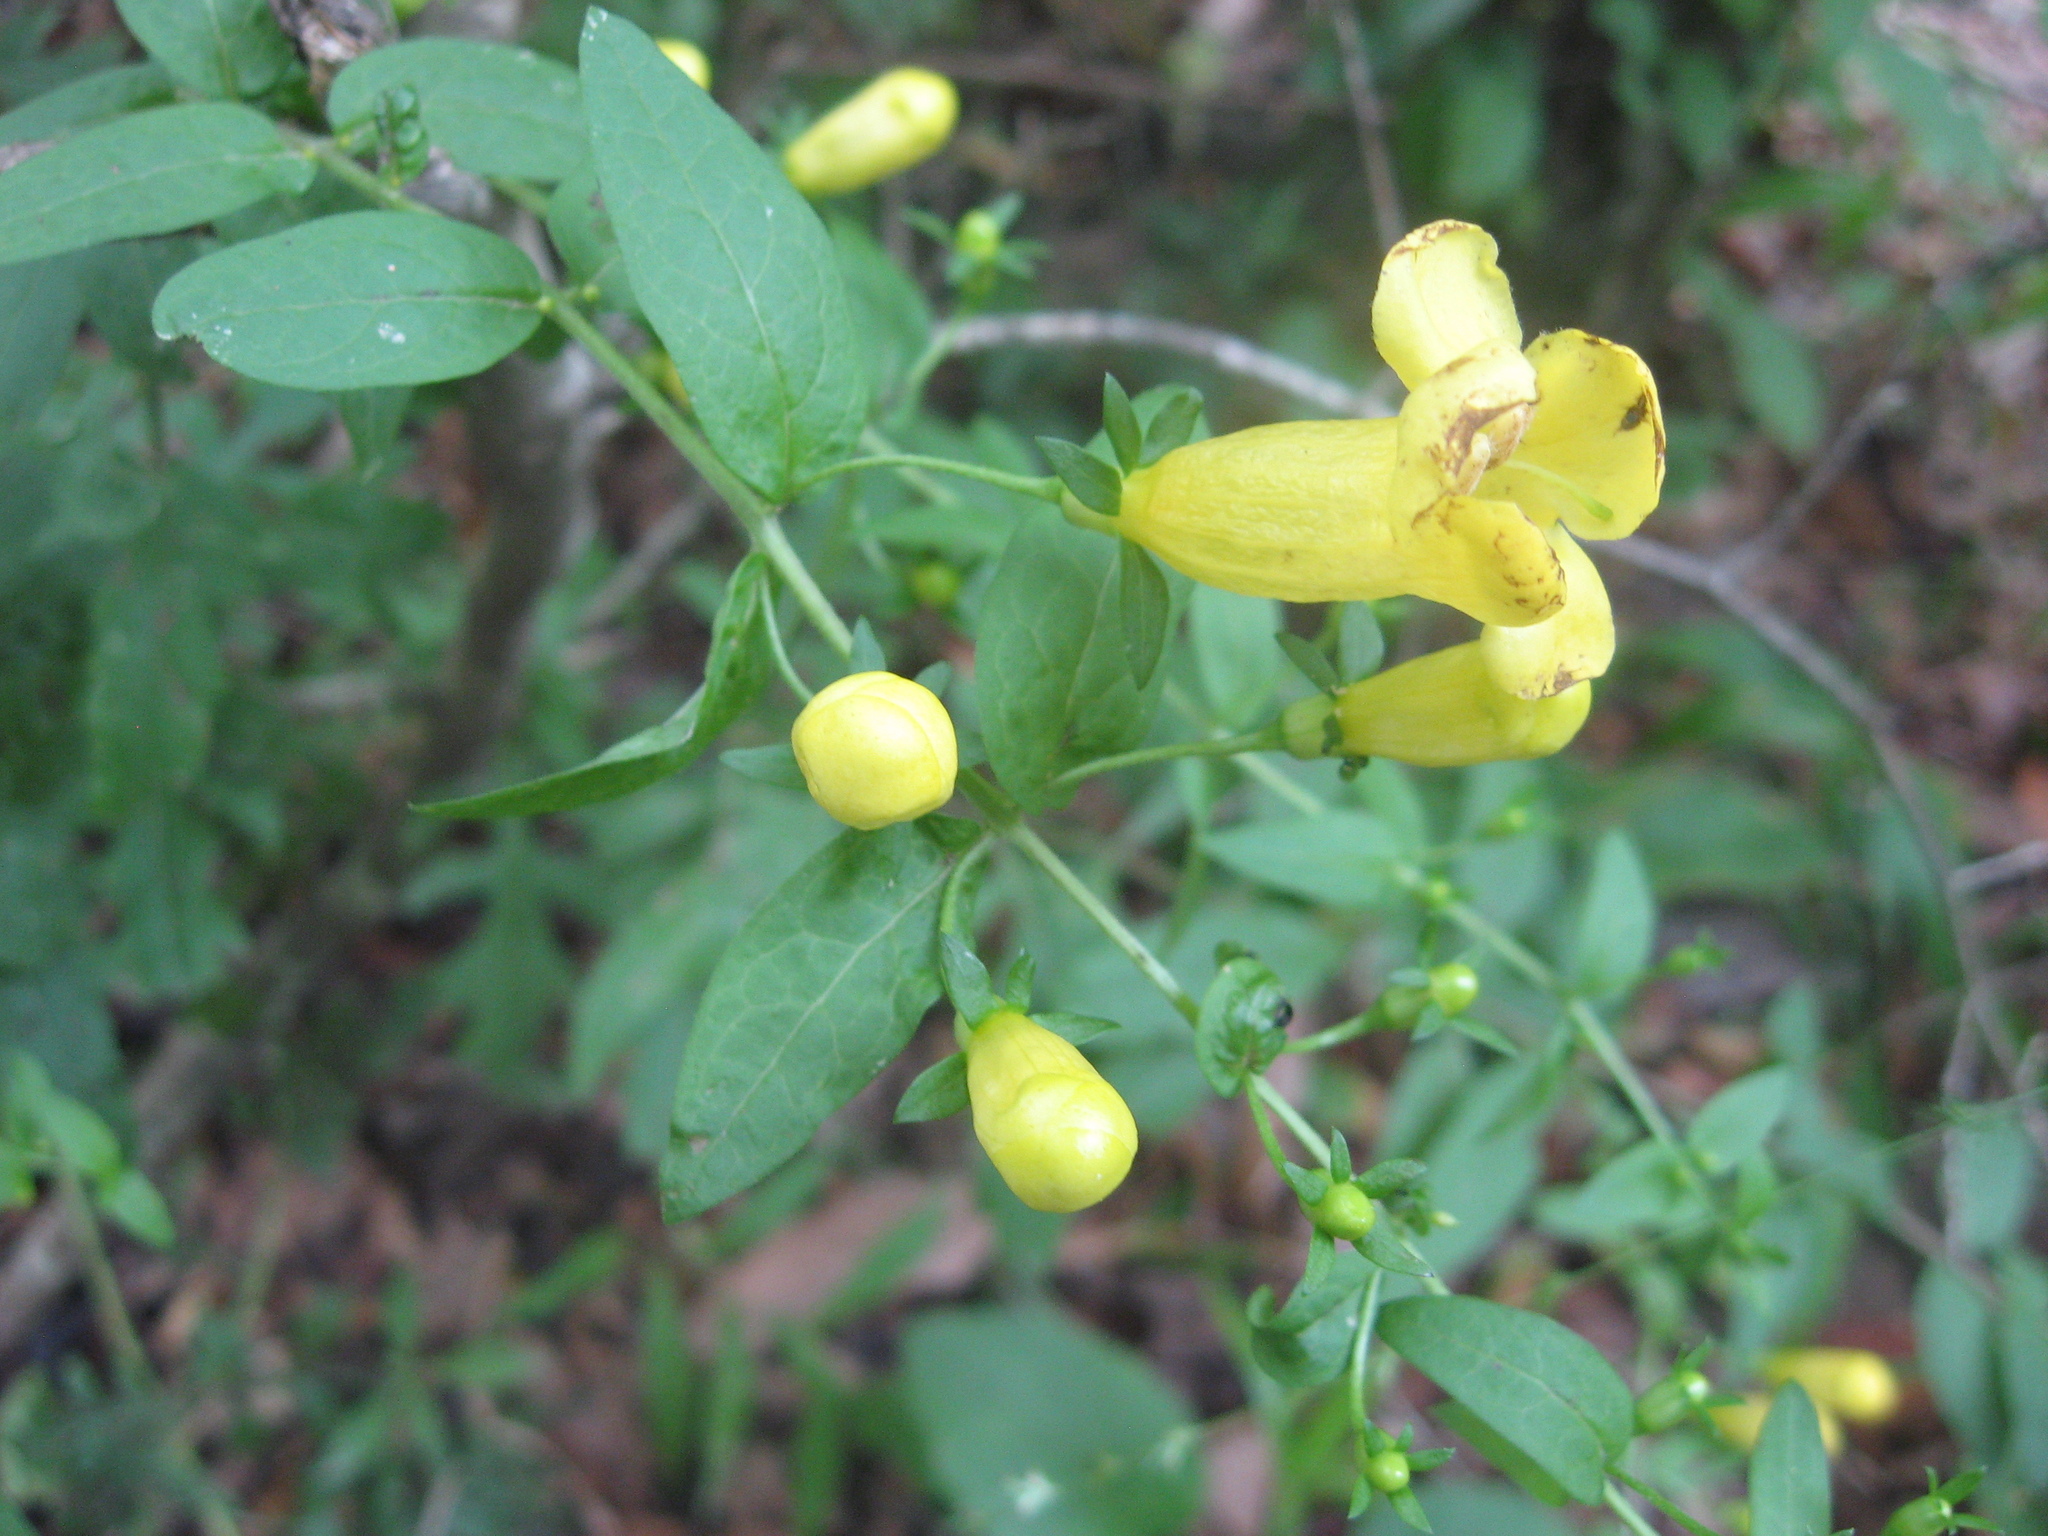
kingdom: Plantae
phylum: Tracheophyta
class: Magnoliopsida
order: Lamiales
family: Orobanchaceae
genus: Aureolaria
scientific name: Aureolaria patula
